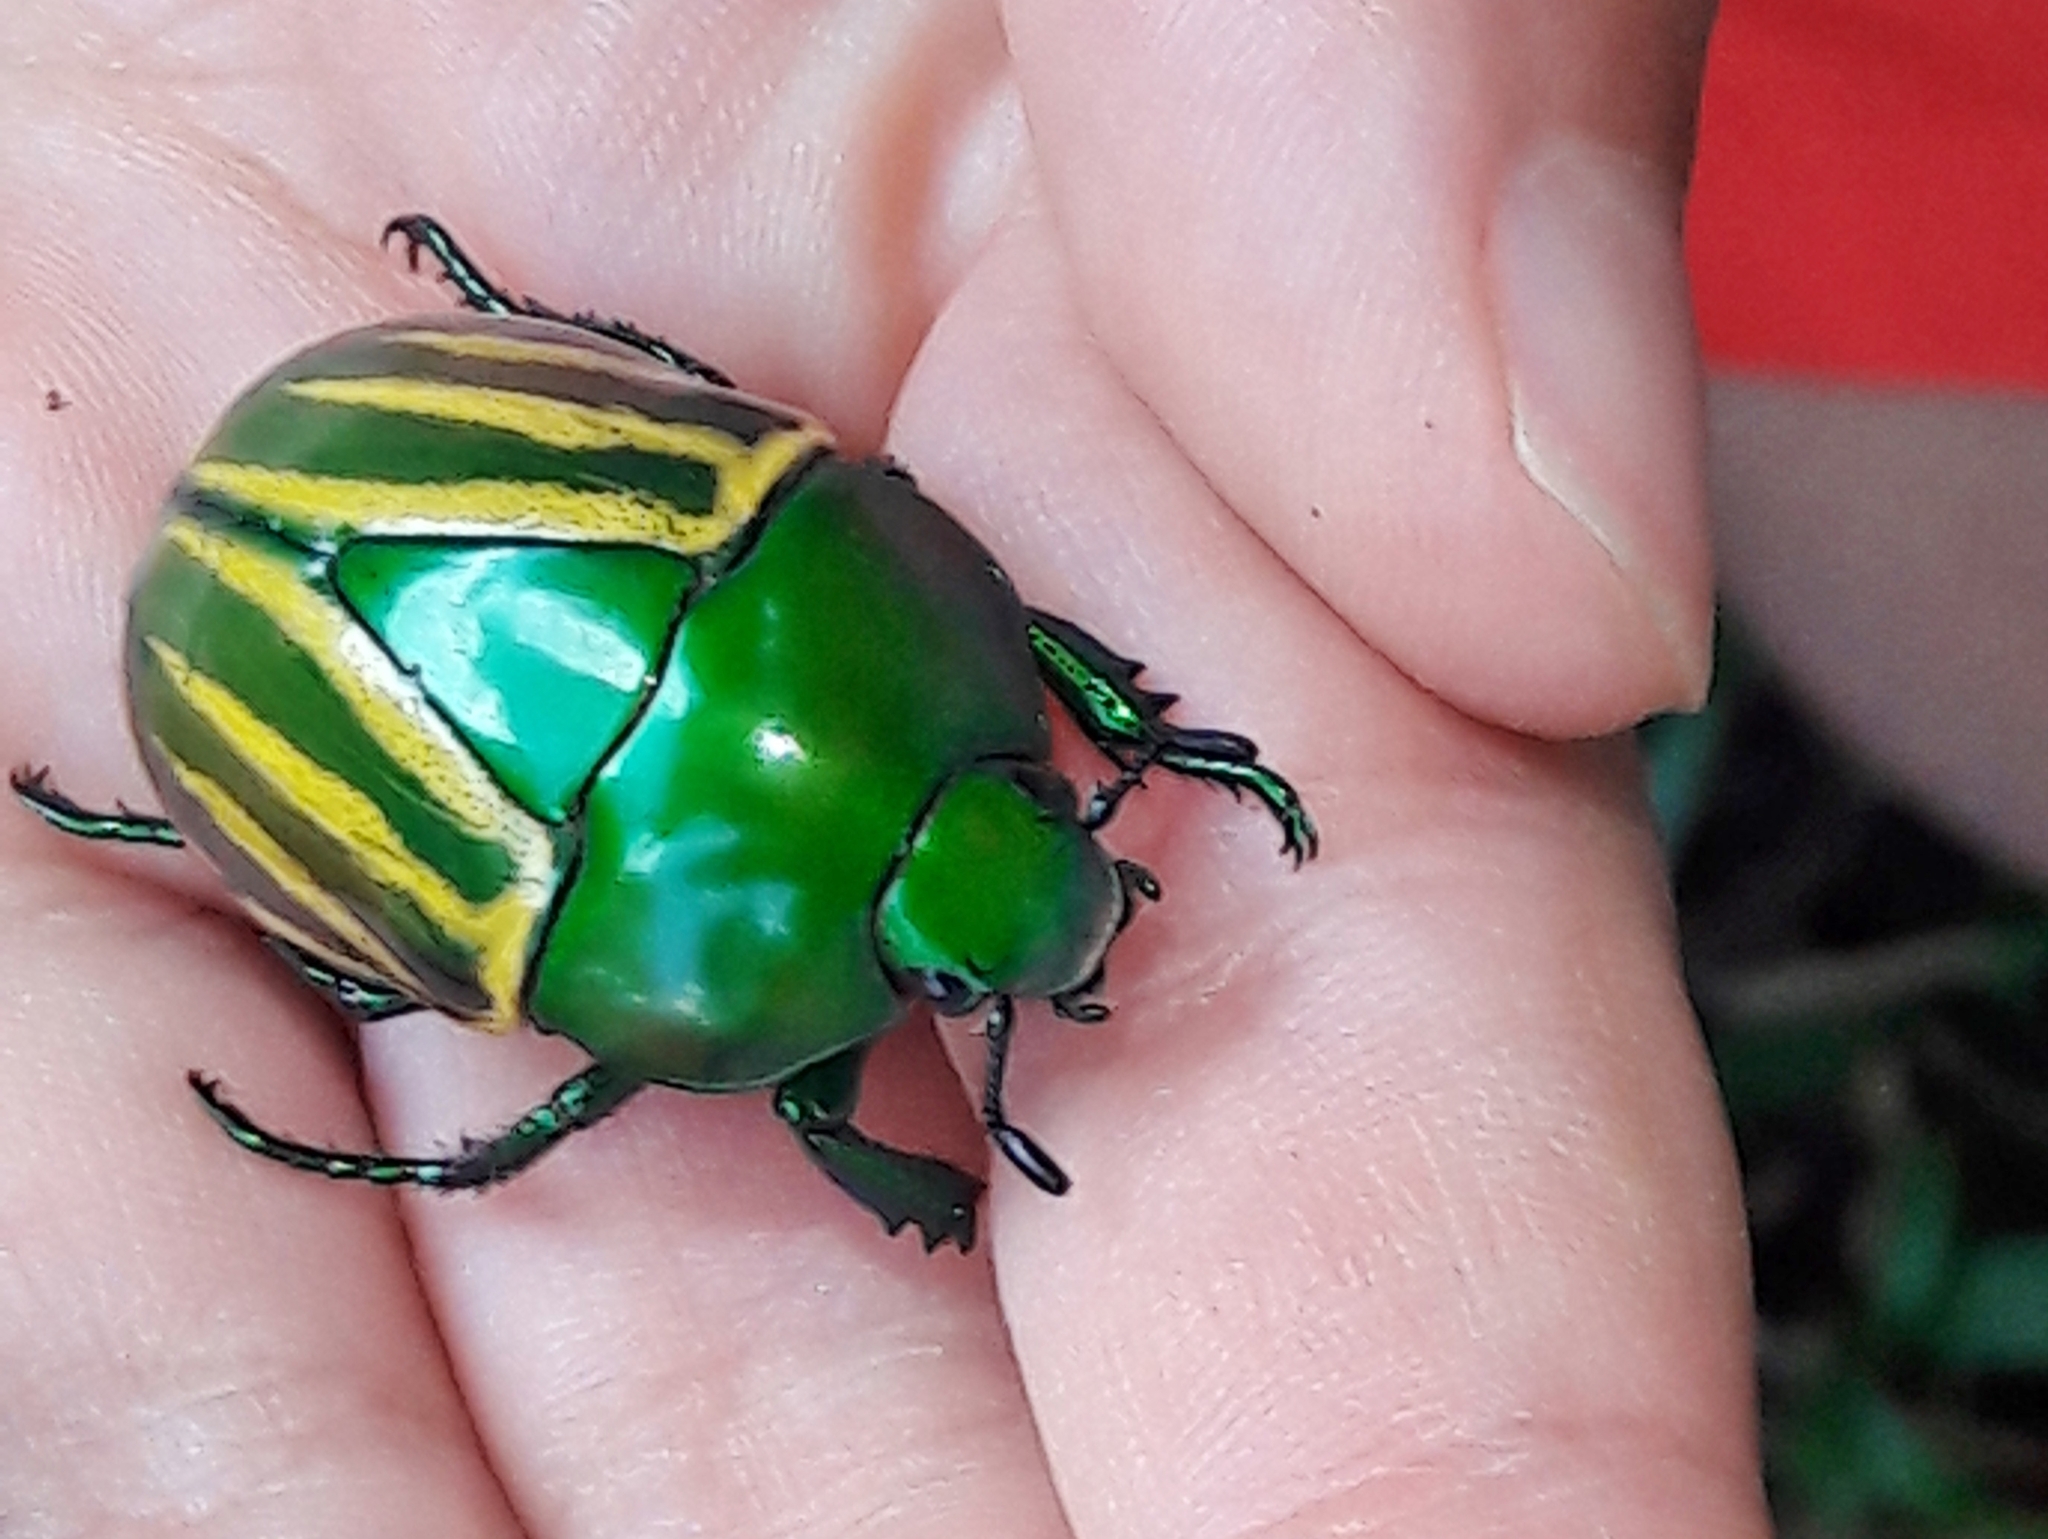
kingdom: Animalia
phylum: Arthropoda
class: Insecta
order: Coleoptera
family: Scarabaeidae
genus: Macraspis
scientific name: Macraspis festiva
